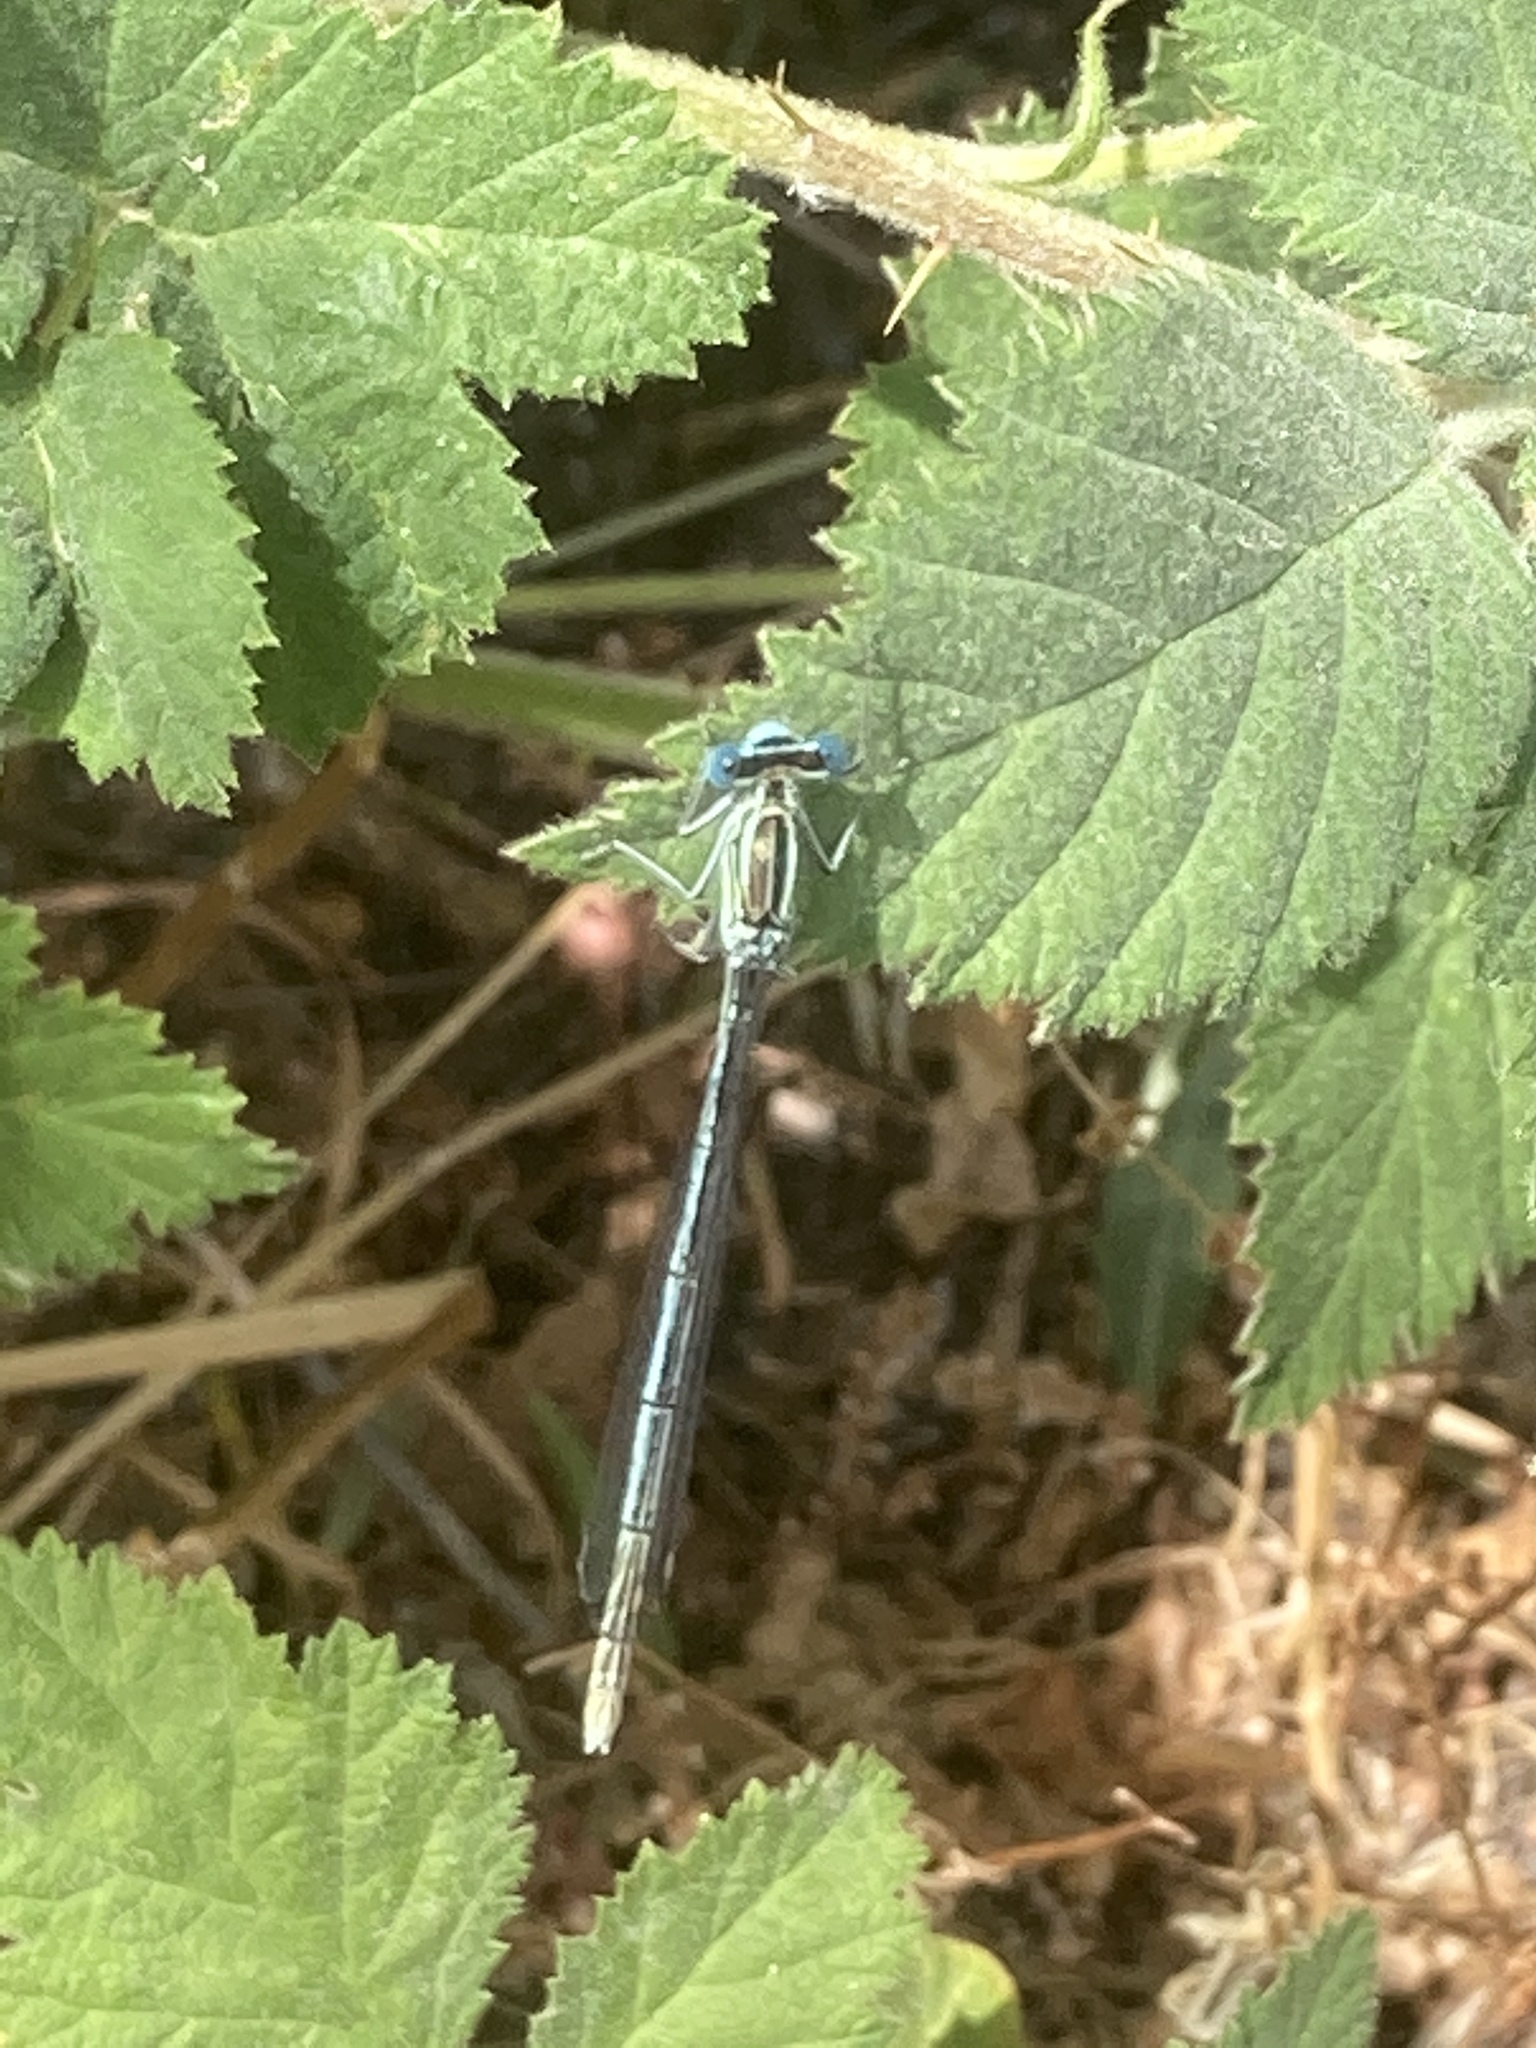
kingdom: Animalia
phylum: Arthropoda
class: Insecta
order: Odonata
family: Platycnemididae
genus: Platycnemis
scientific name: Platycnemis pennipes
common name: White-legged damselfly
